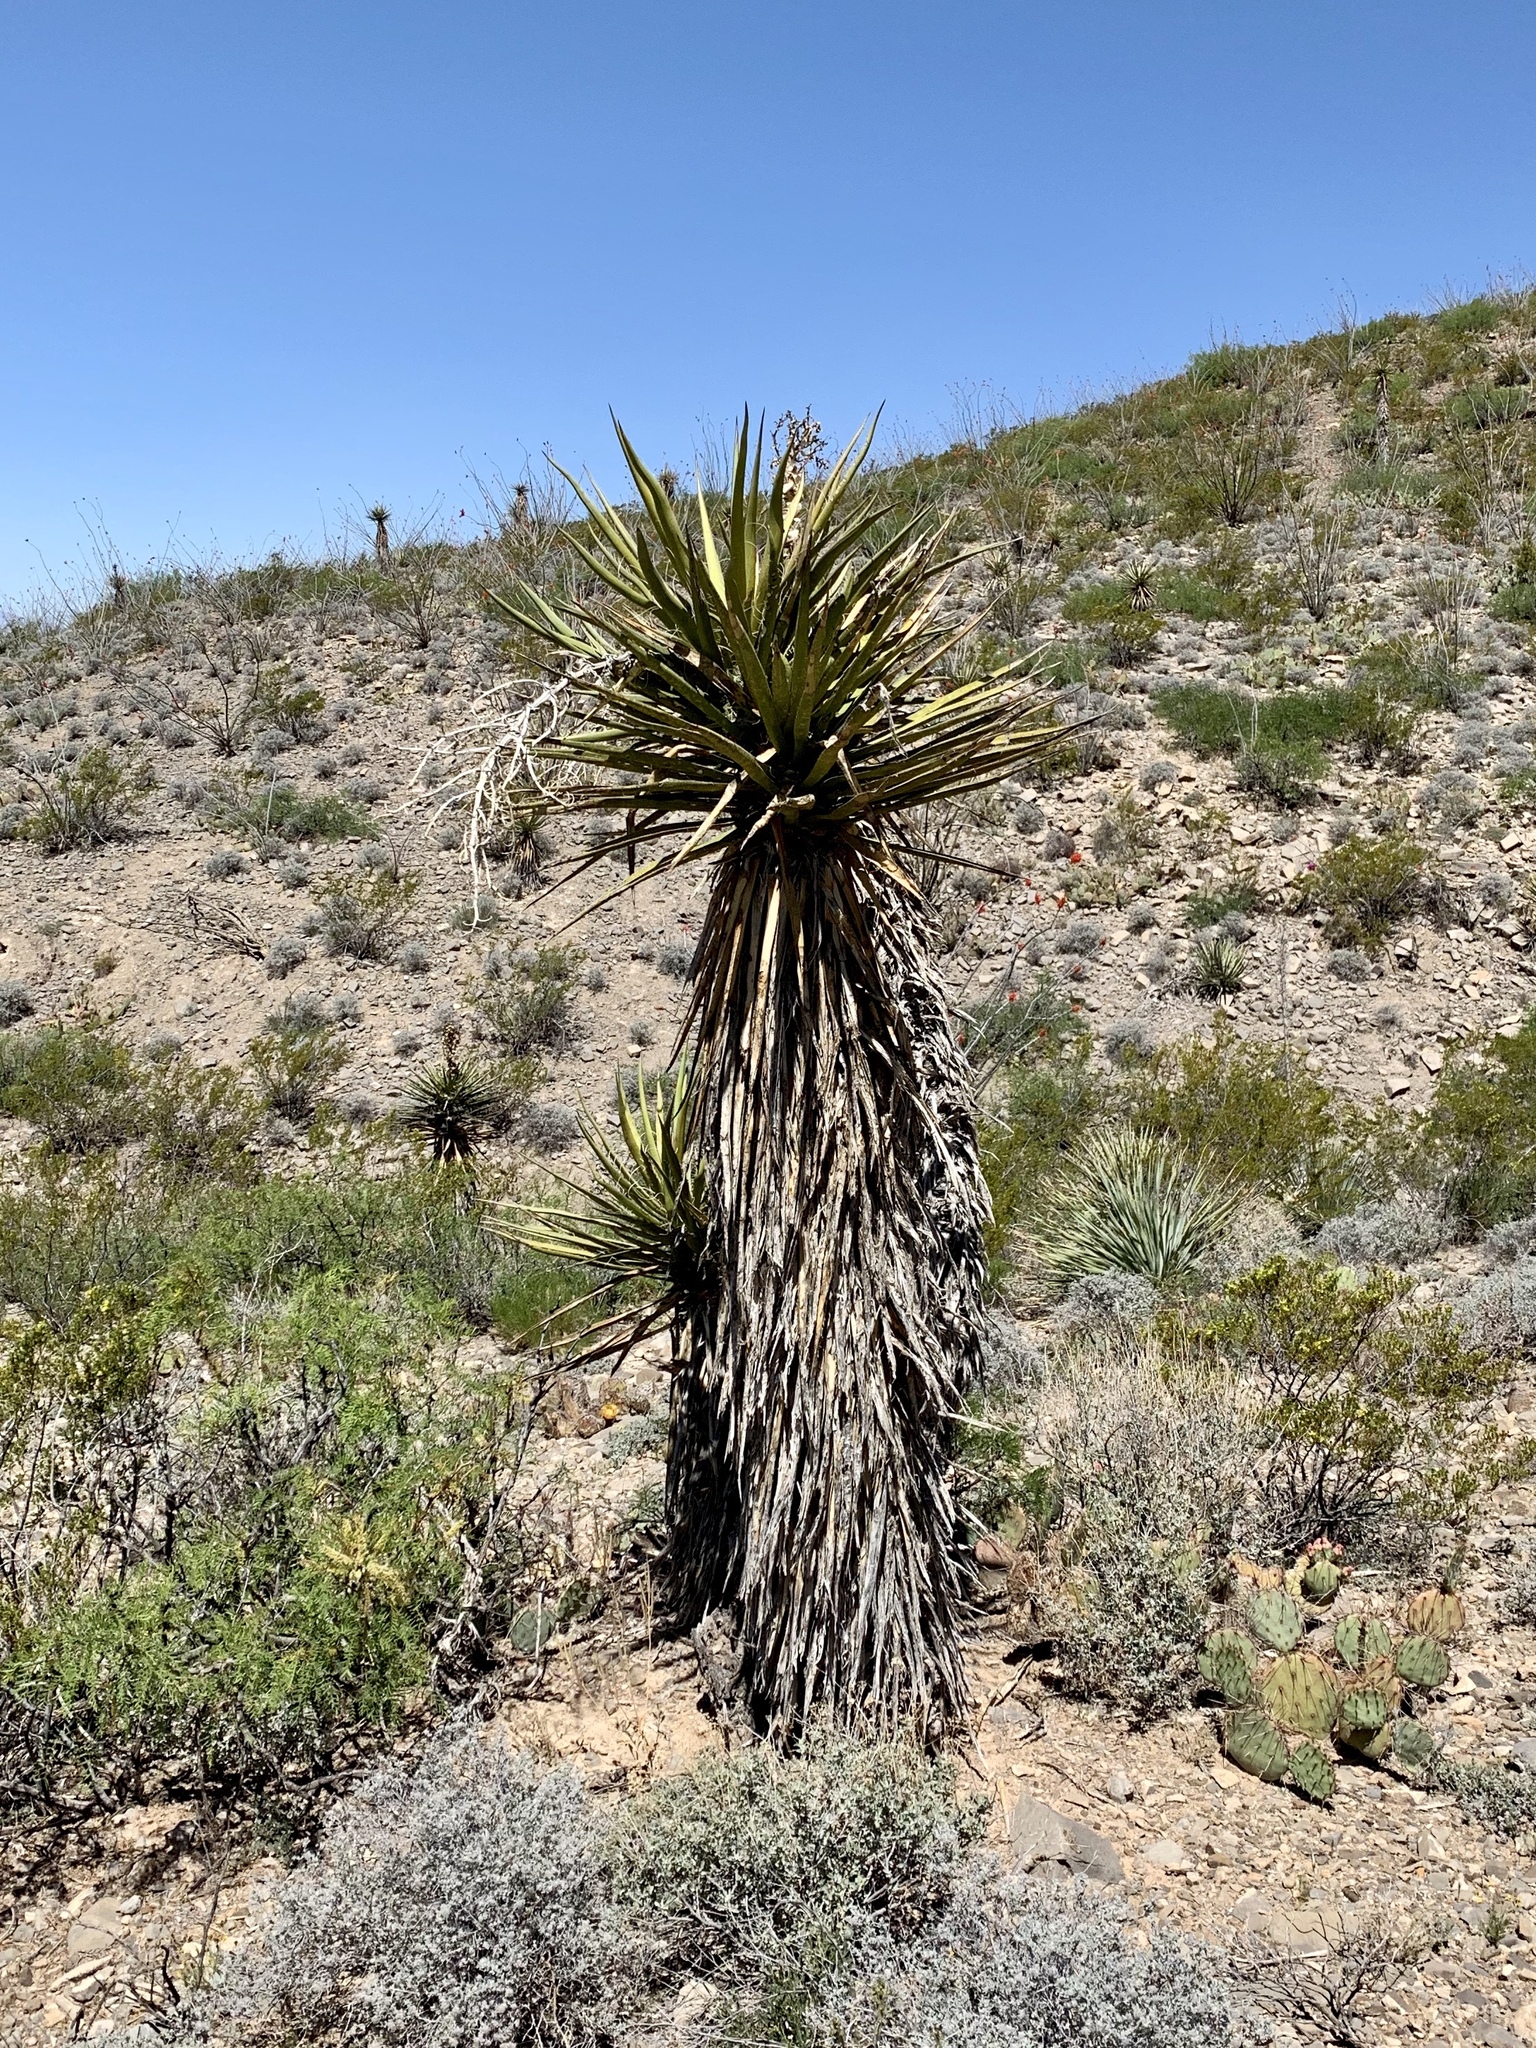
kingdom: Plantae
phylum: Tracheophyta
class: Liliopsida
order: Asparagales
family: Asparagaceae
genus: Yucca
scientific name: Yucca treculiana
